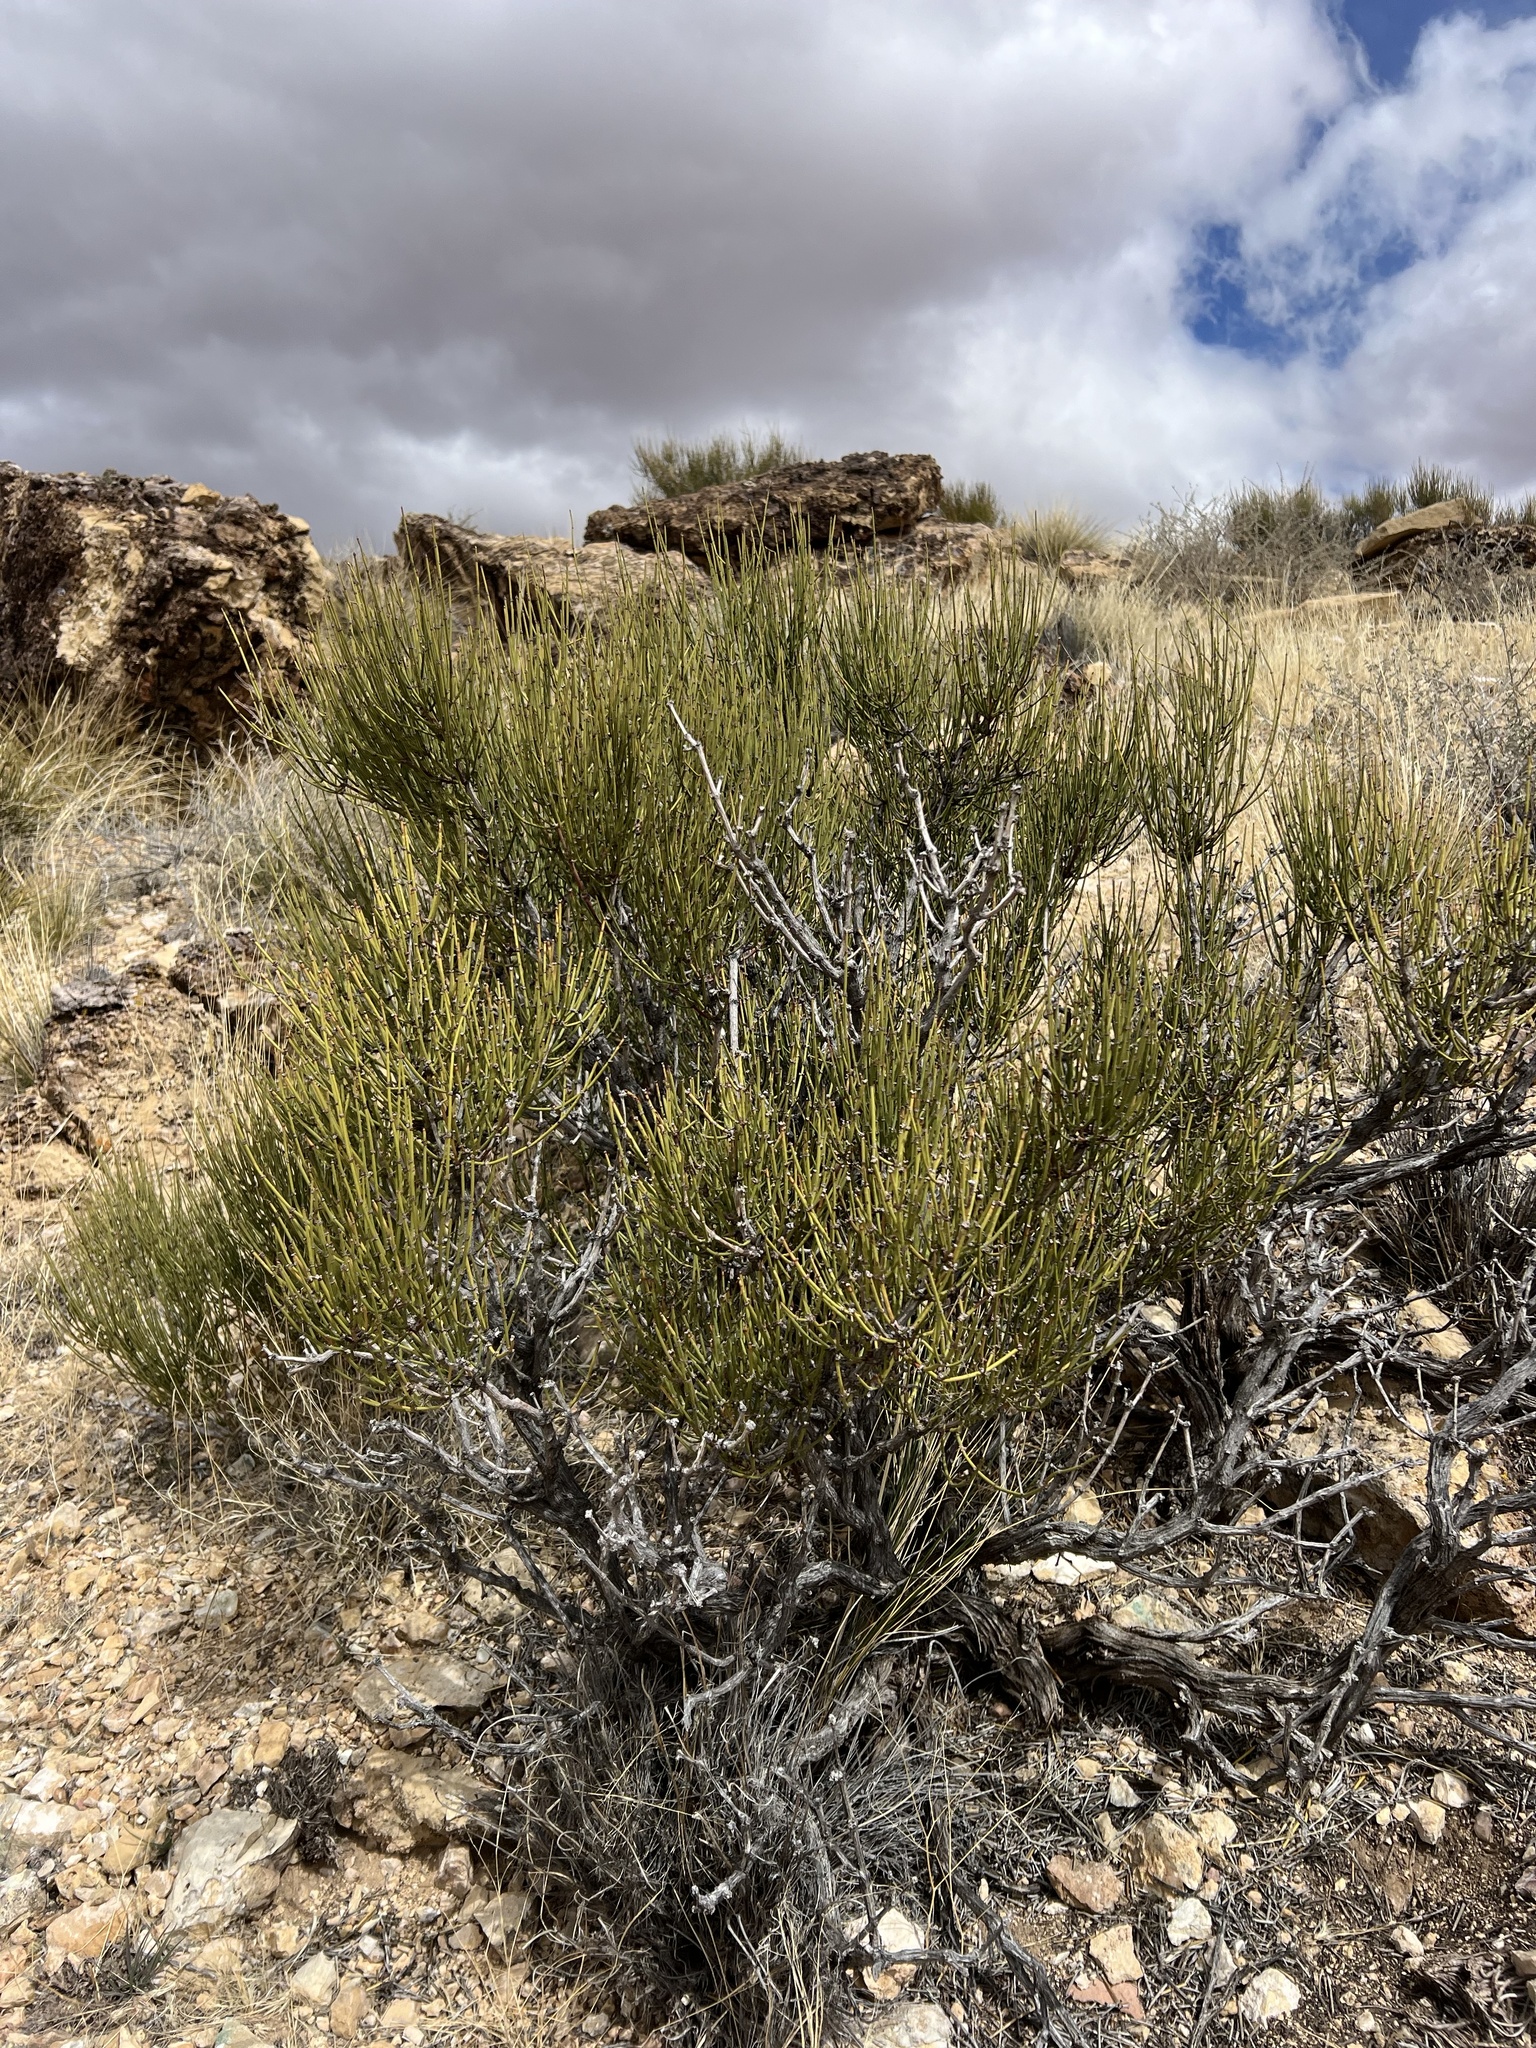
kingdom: Plantae
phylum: Tracheophyta
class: Gnetopsida
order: Ephedrales
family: Ephedraceae
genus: Ephedra
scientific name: Ephedra viridis
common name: Green ephedra
